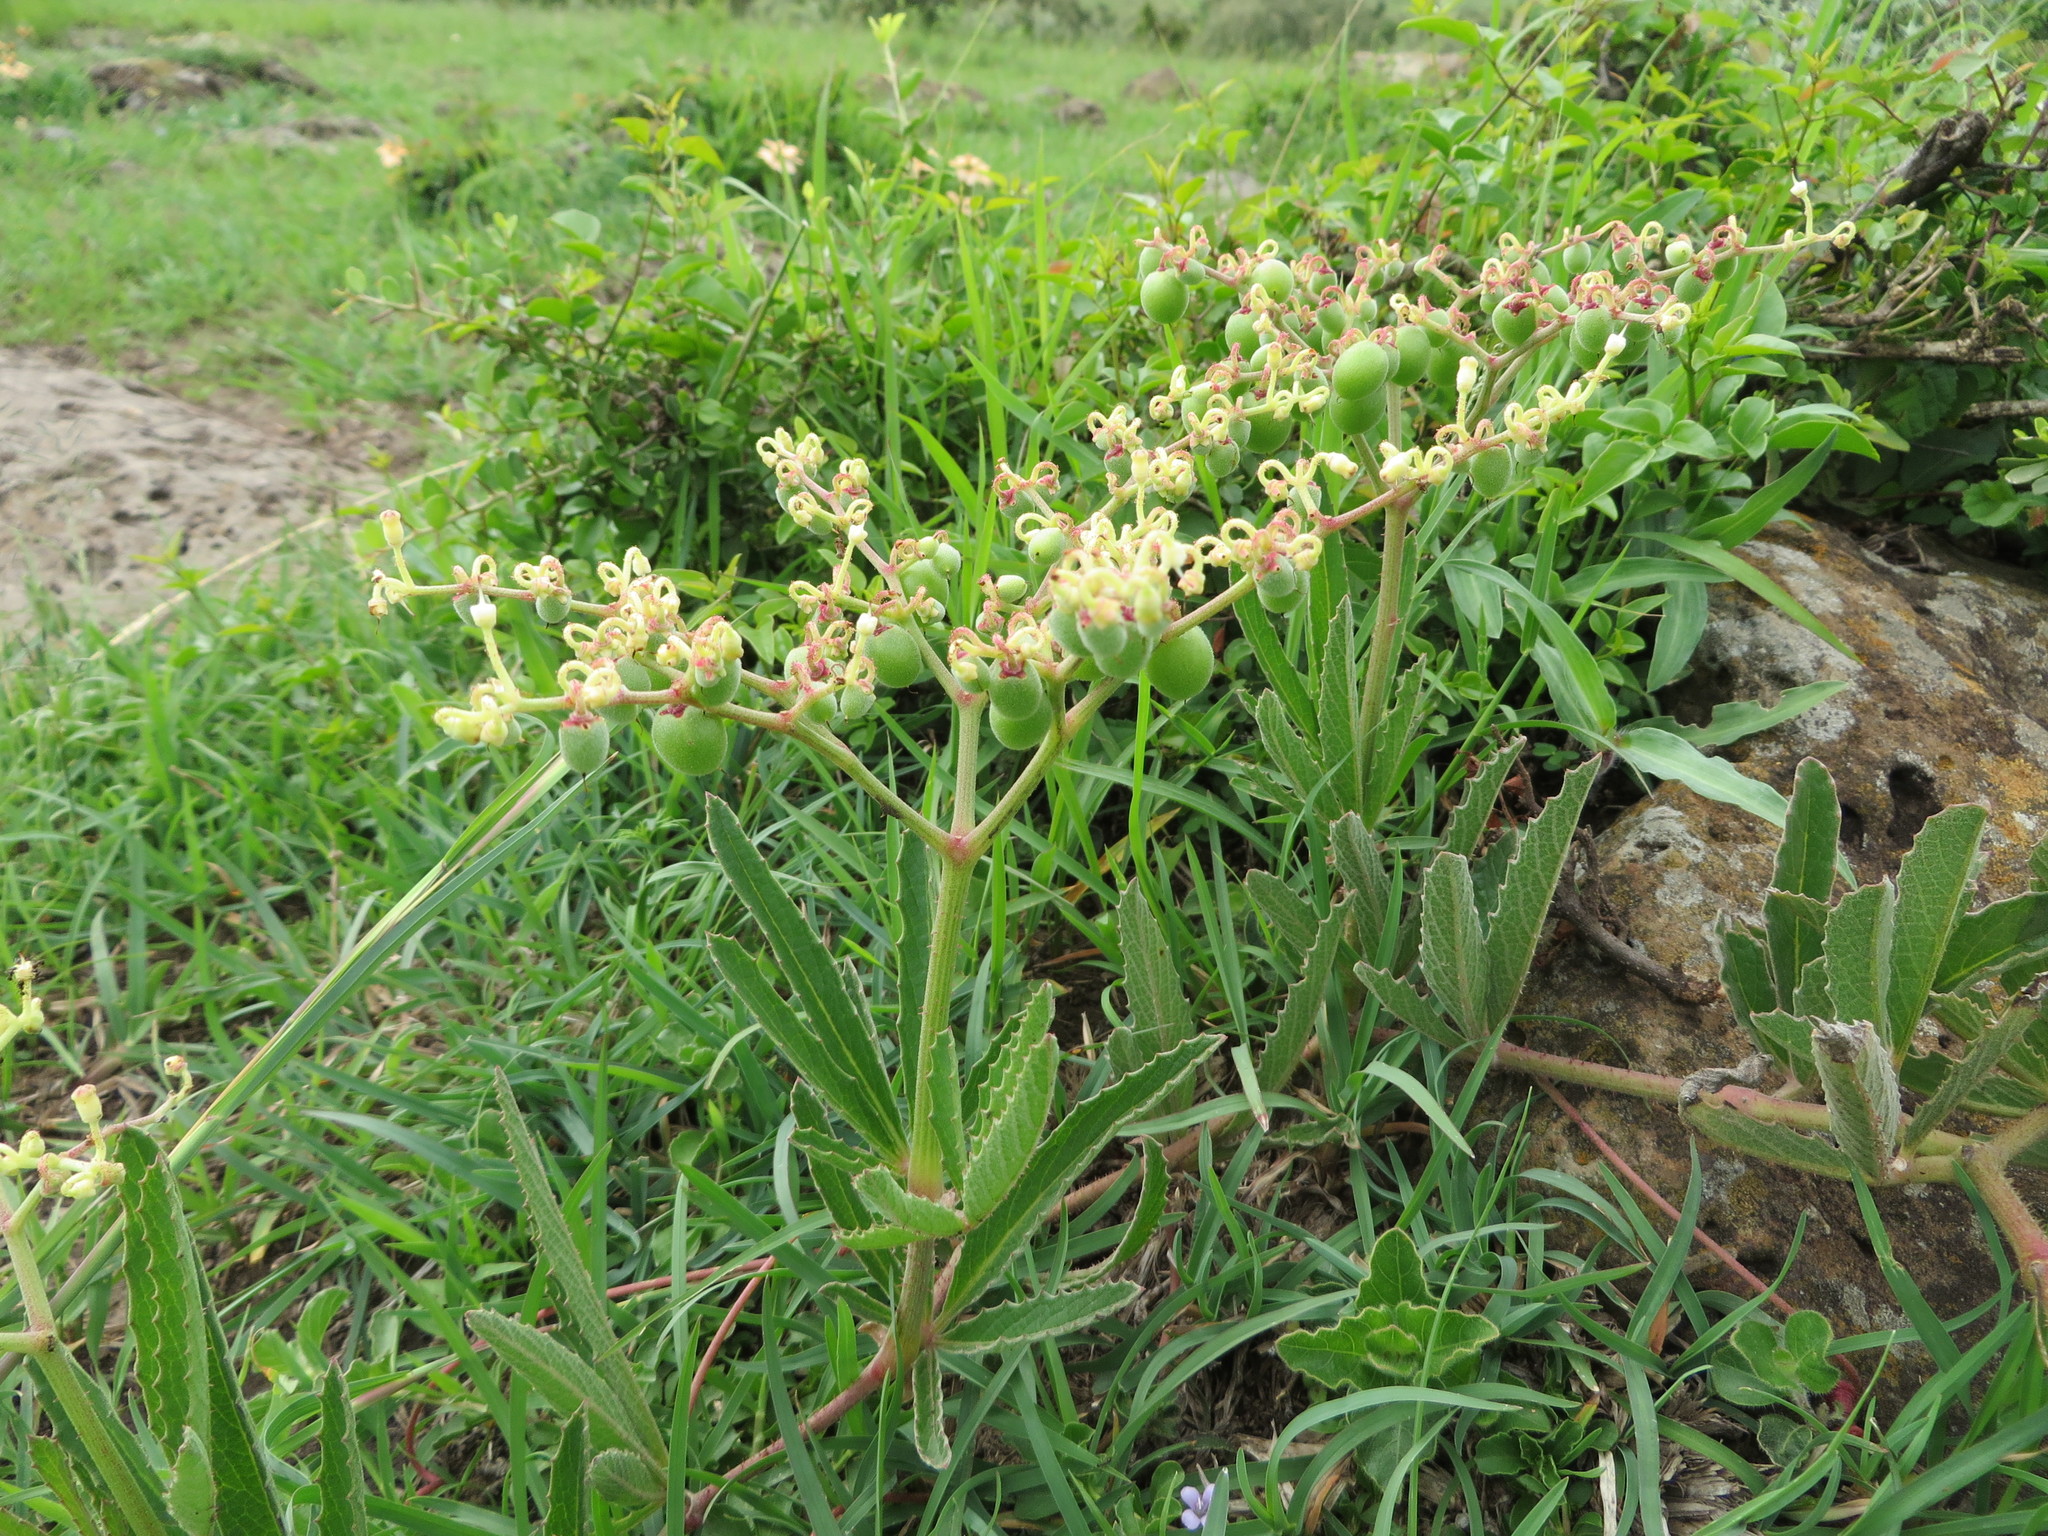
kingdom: Plantae
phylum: Tracheophyta
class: Magnoliopsida
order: Vitales
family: Vitaceae
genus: Cyphostemma
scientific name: Cyphostemma serpens
